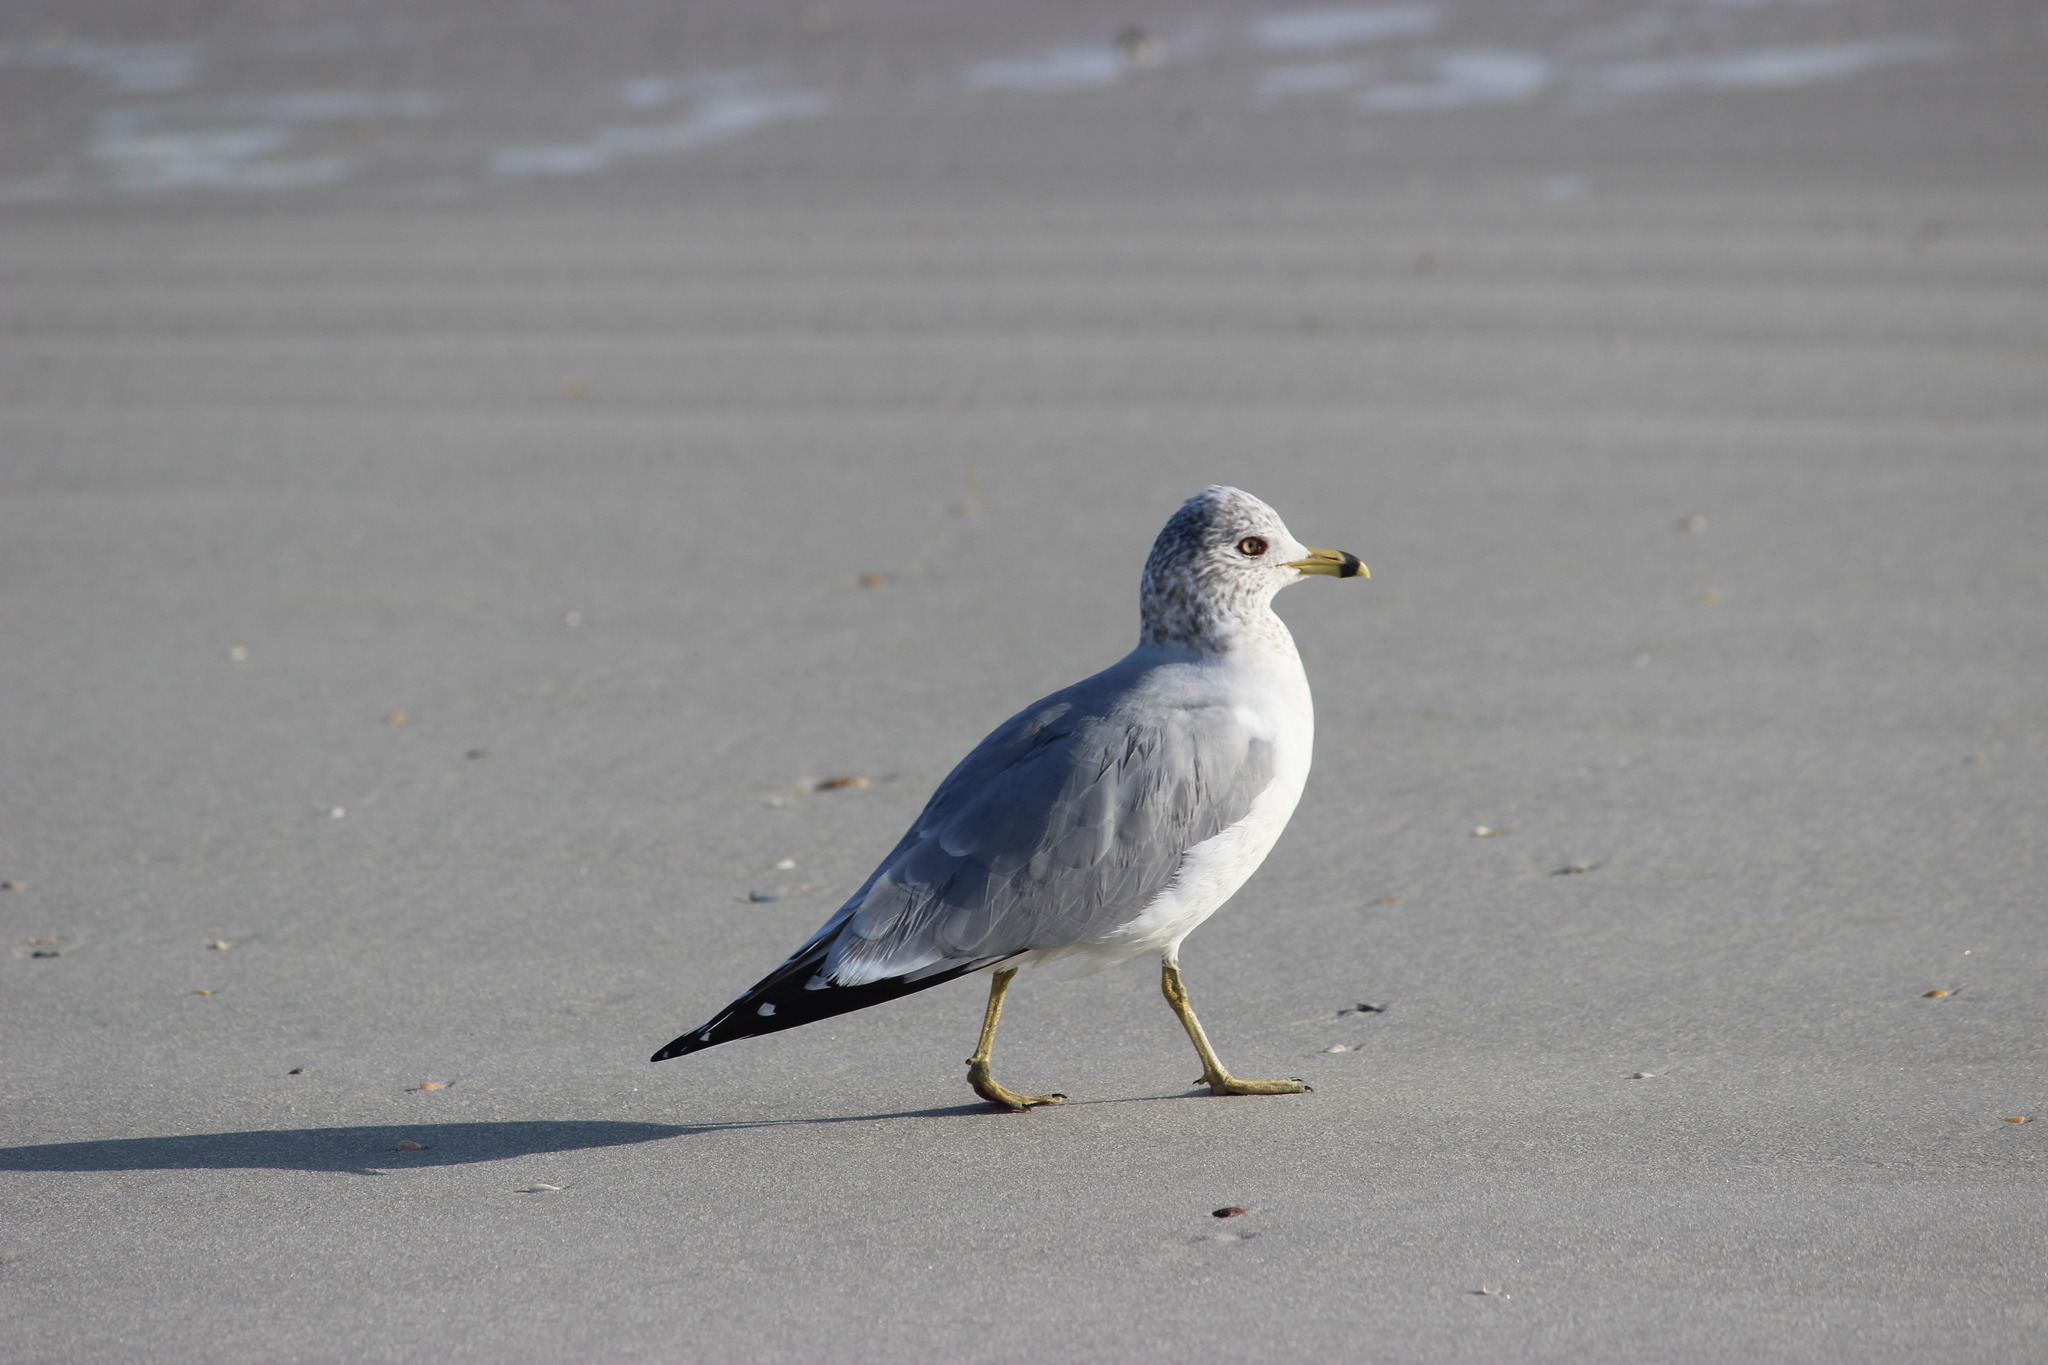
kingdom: Animalia
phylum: Chordata
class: Aves
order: Charadriiformes
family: Laridae
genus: Larus
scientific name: Larus delawarensis
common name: Ring-billed gull
